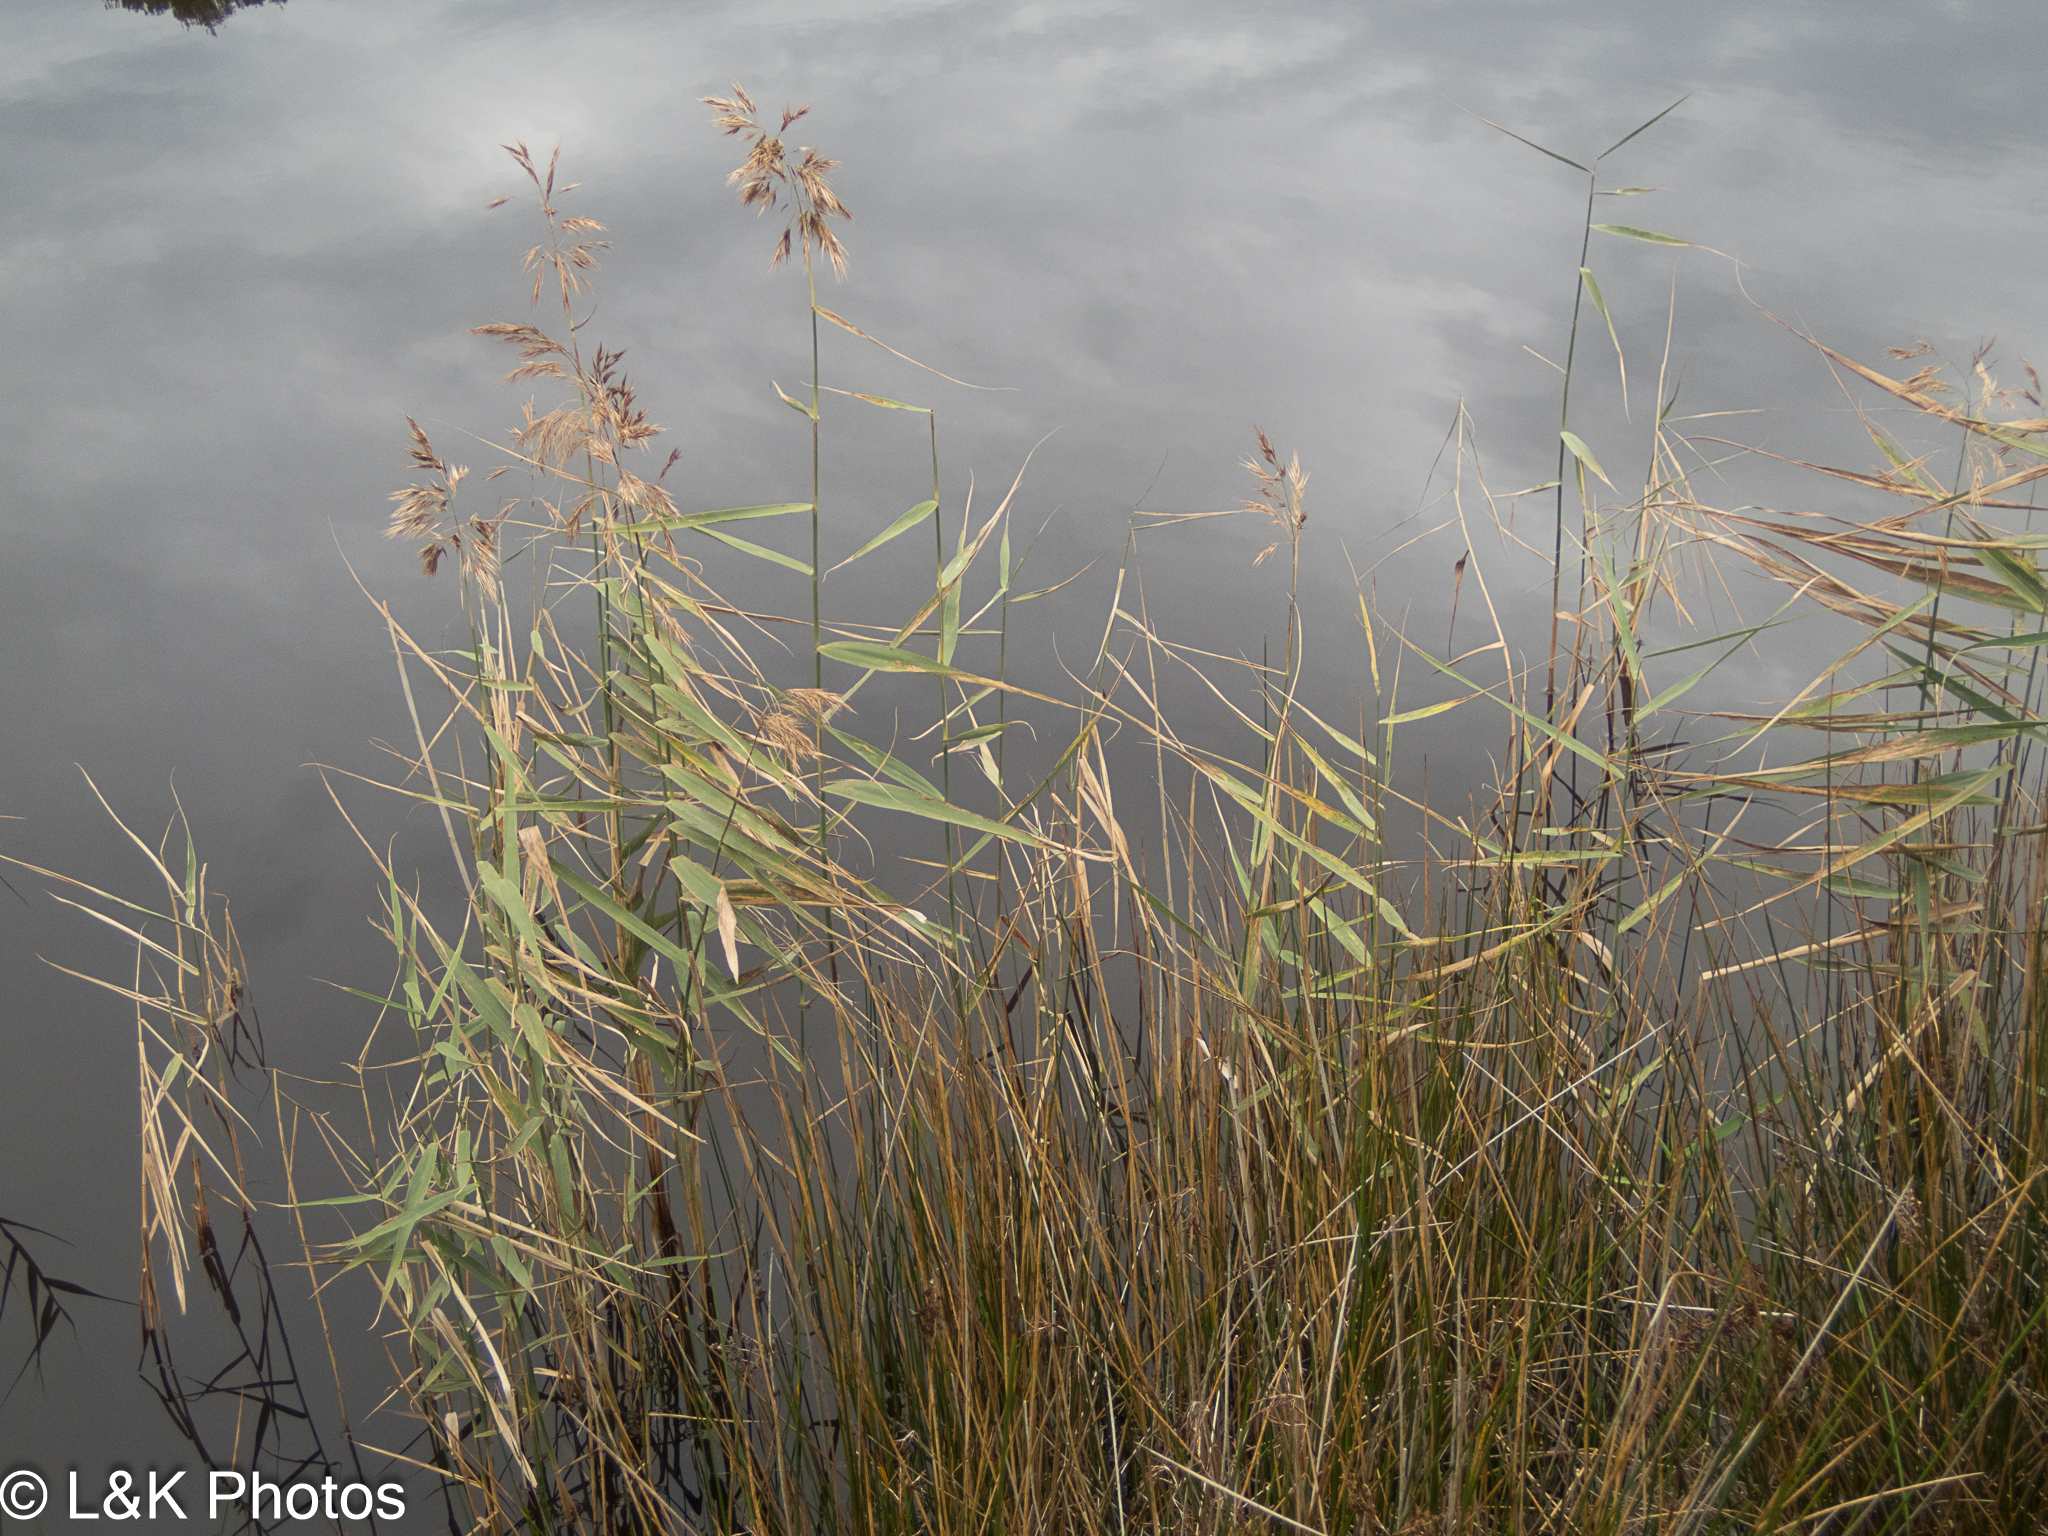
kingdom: Plantae
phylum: Tracheophyta
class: Liliopsida
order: Poales
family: Poaceae
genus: Phragmites
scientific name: Phragmites australis
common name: Common reed
